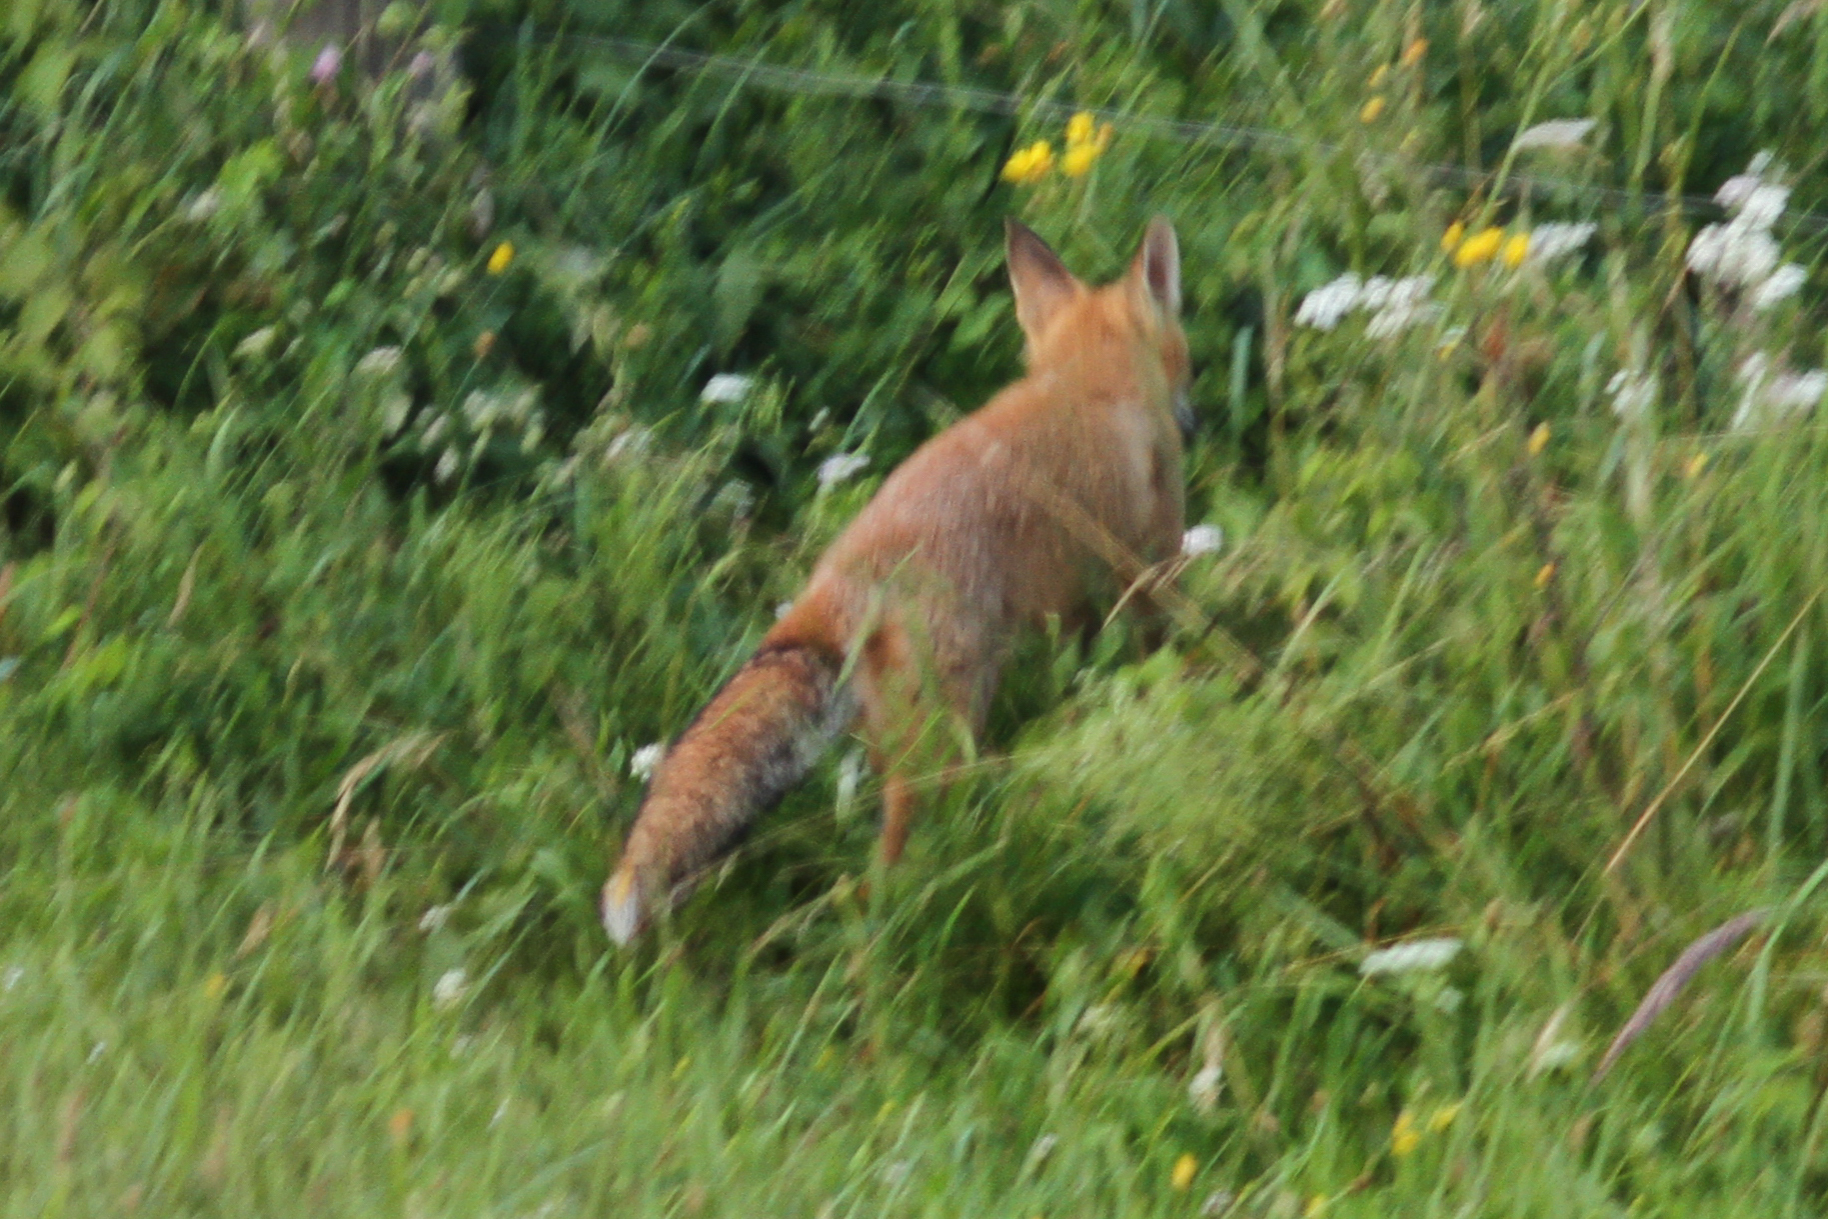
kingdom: Animalia
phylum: Chordata
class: Mammalia
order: Carnivora
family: Canidae
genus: Vulpes
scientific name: Vulpes vulpes
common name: Red fox
